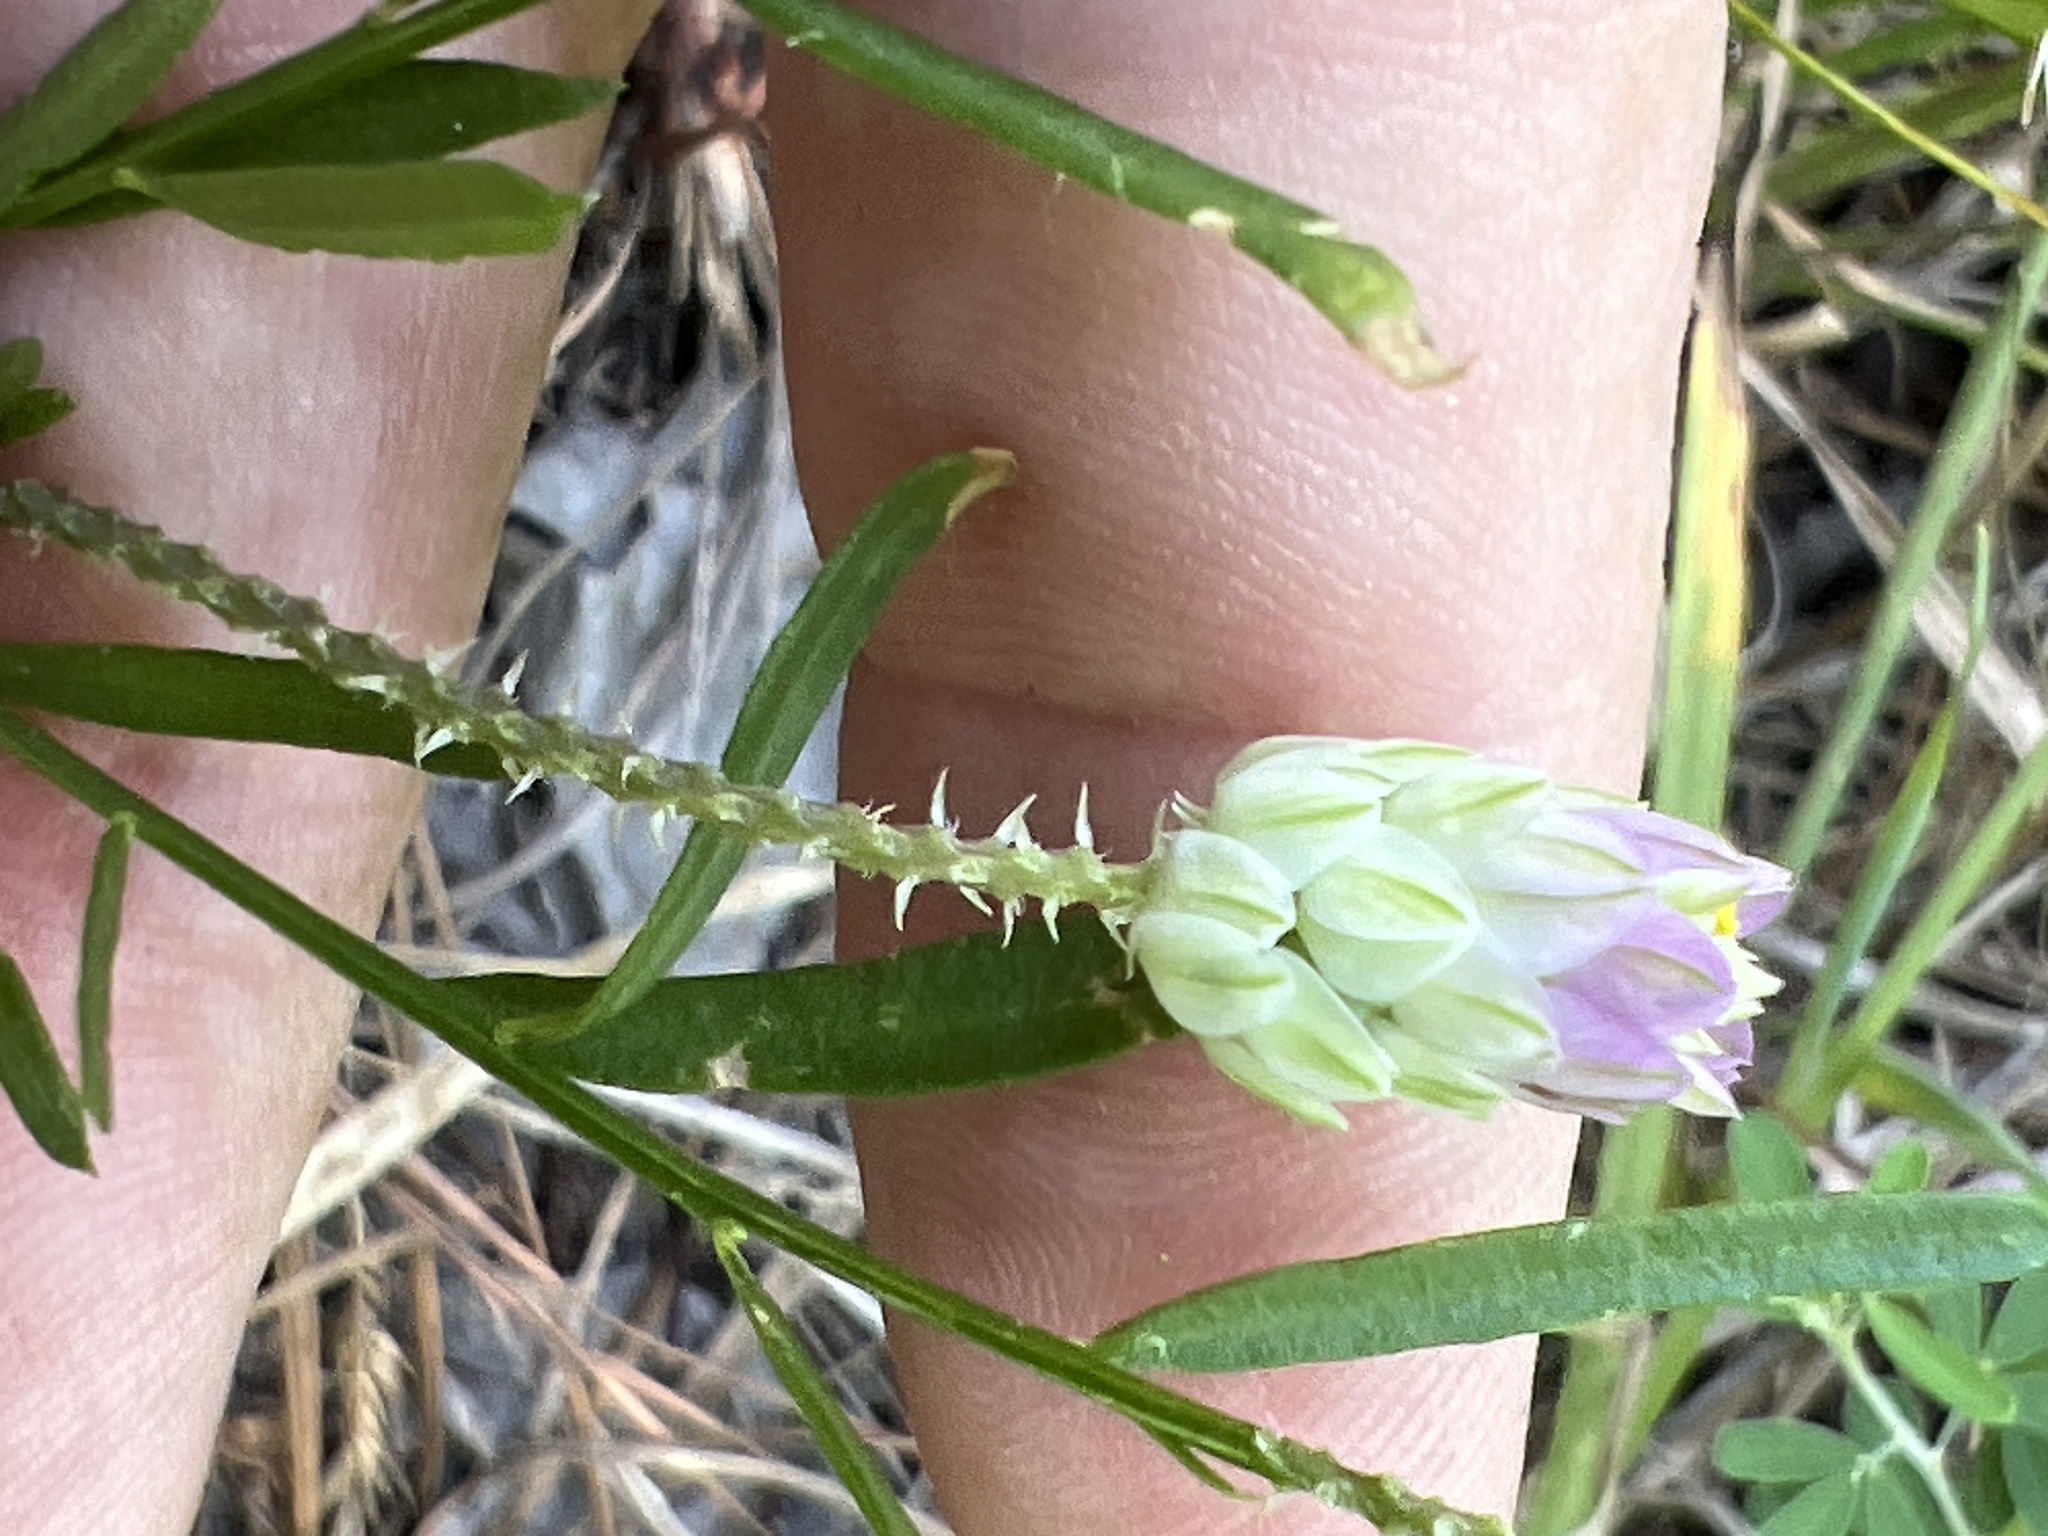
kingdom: Plantae
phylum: Tracheophyta
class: Magnoliopsida
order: Fabales
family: Polygalaceae
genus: Polygala
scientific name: Polygala sanguinea
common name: Blood milkwort
